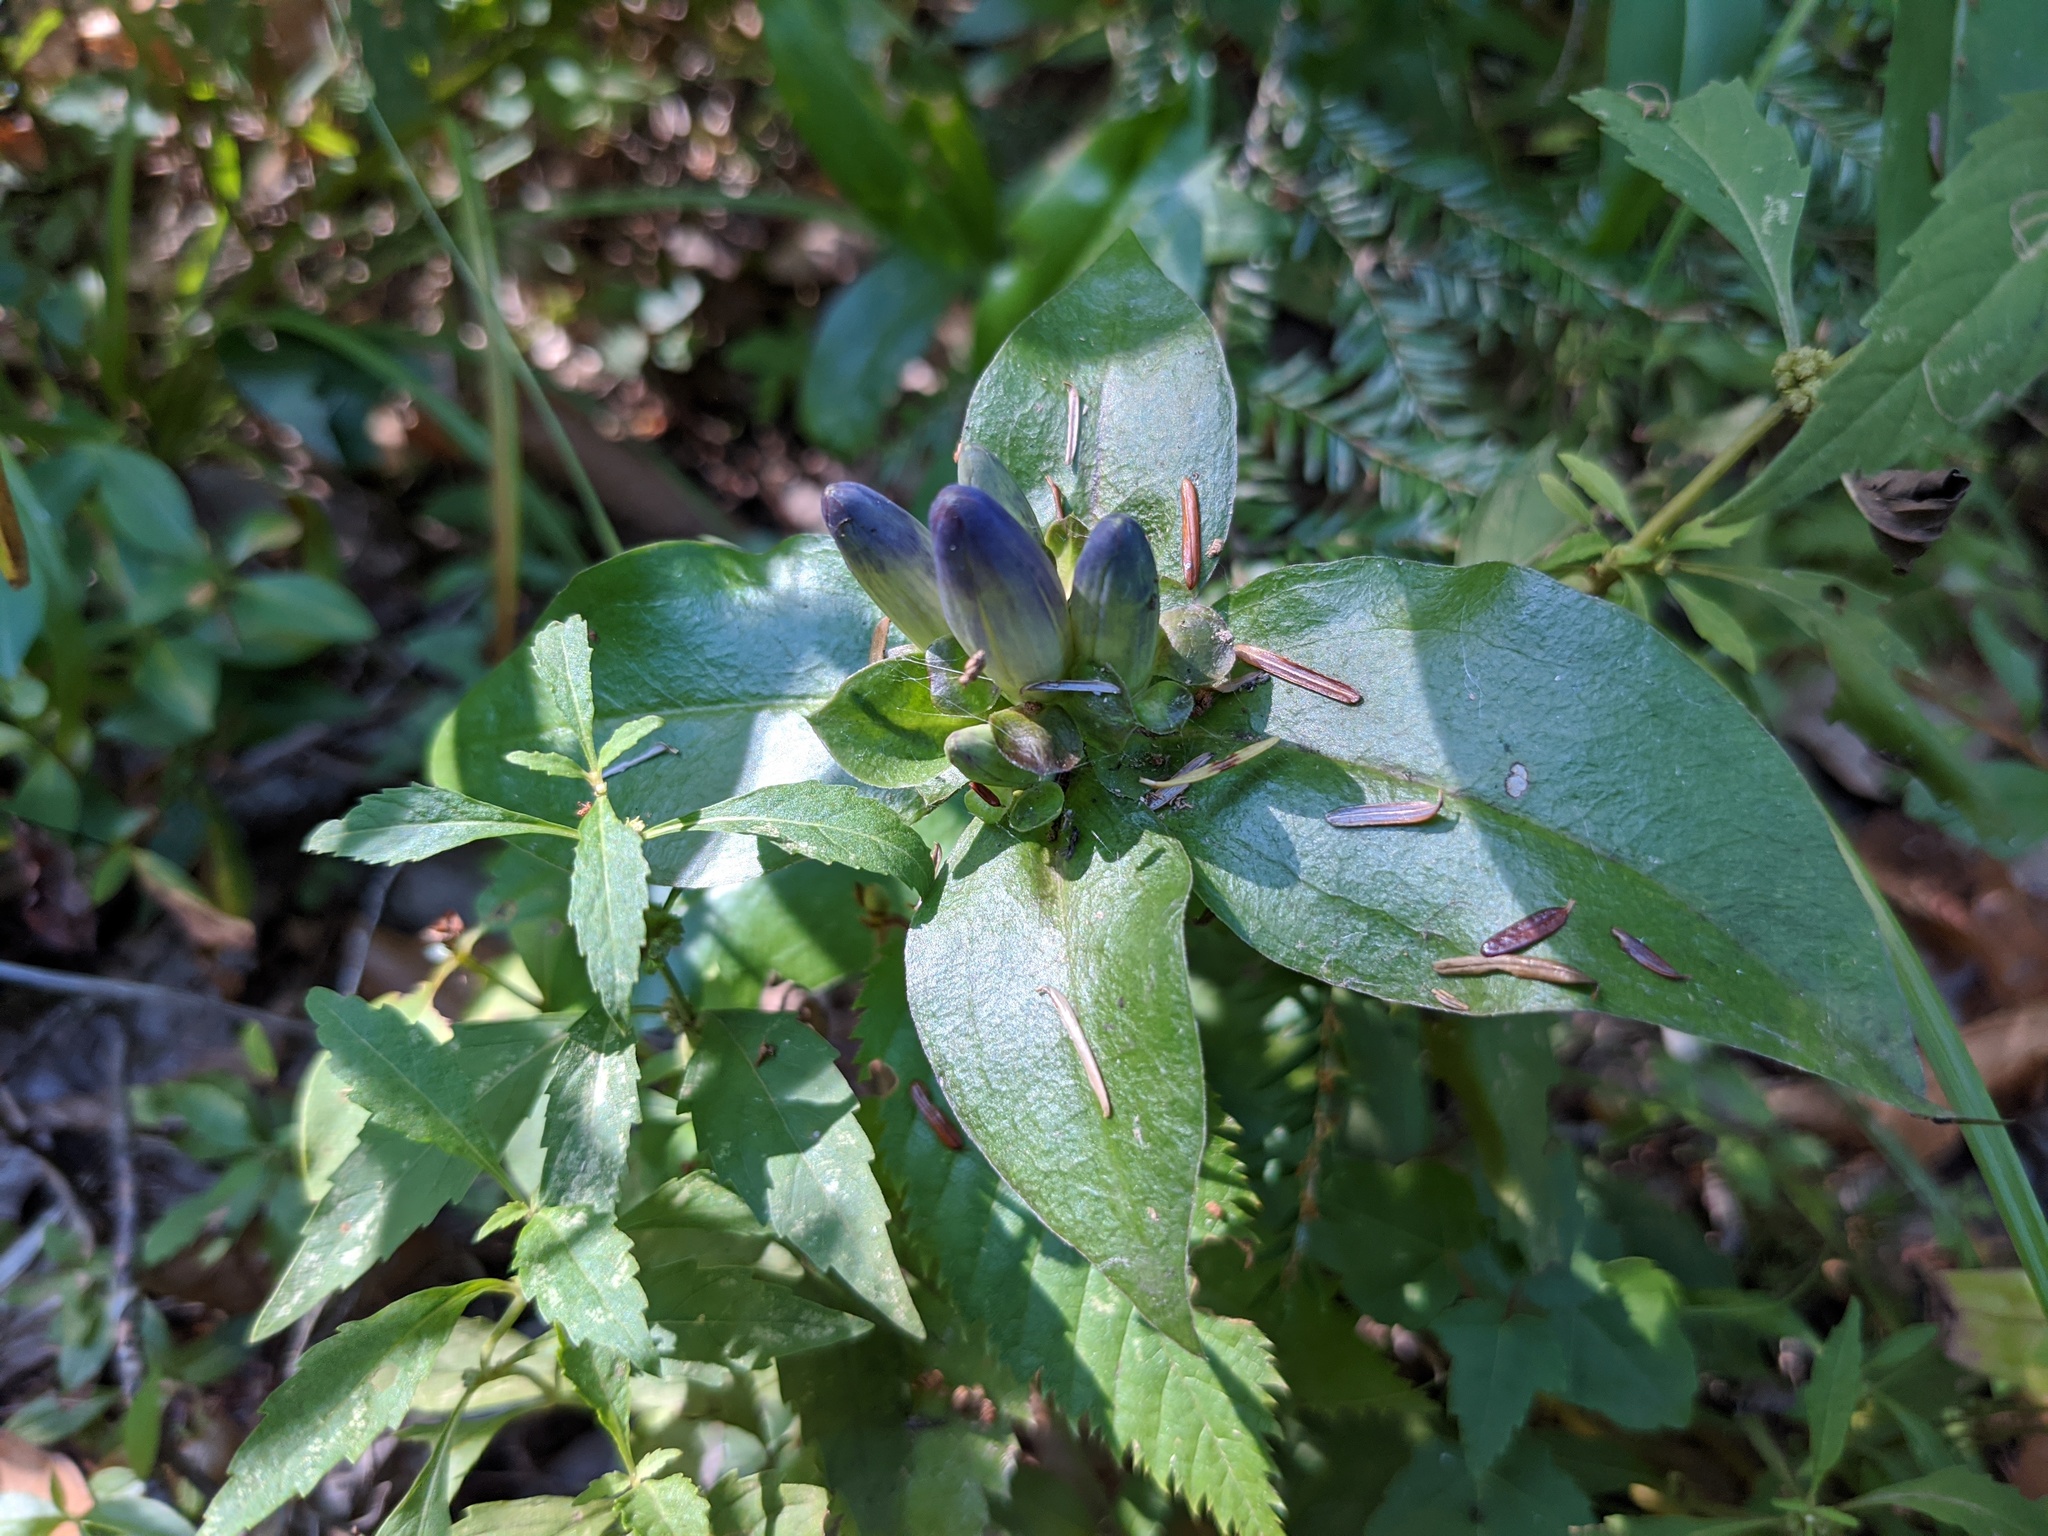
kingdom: Plantae
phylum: Tracheophyta
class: Magnoliopsida
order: Gentianales
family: Gentianaceae
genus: Gentiana
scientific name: Gentiana clausa
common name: Blind gentian
